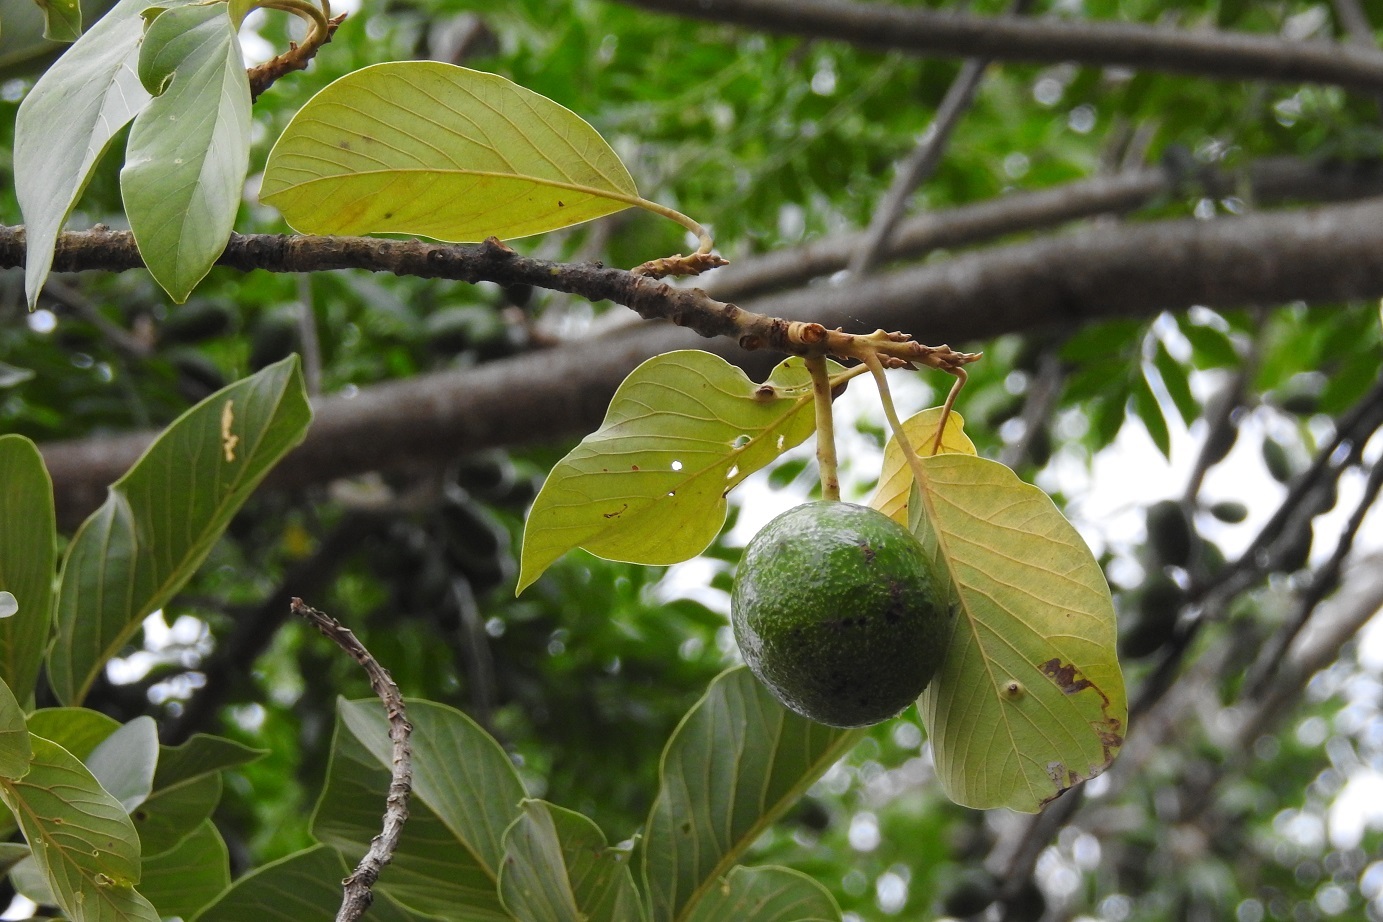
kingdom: Plantae
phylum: Tracheophyta
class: Magnoliopsida
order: Laurales
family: Lauraceae
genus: Persea
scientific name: Persea americana
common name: Avocado
